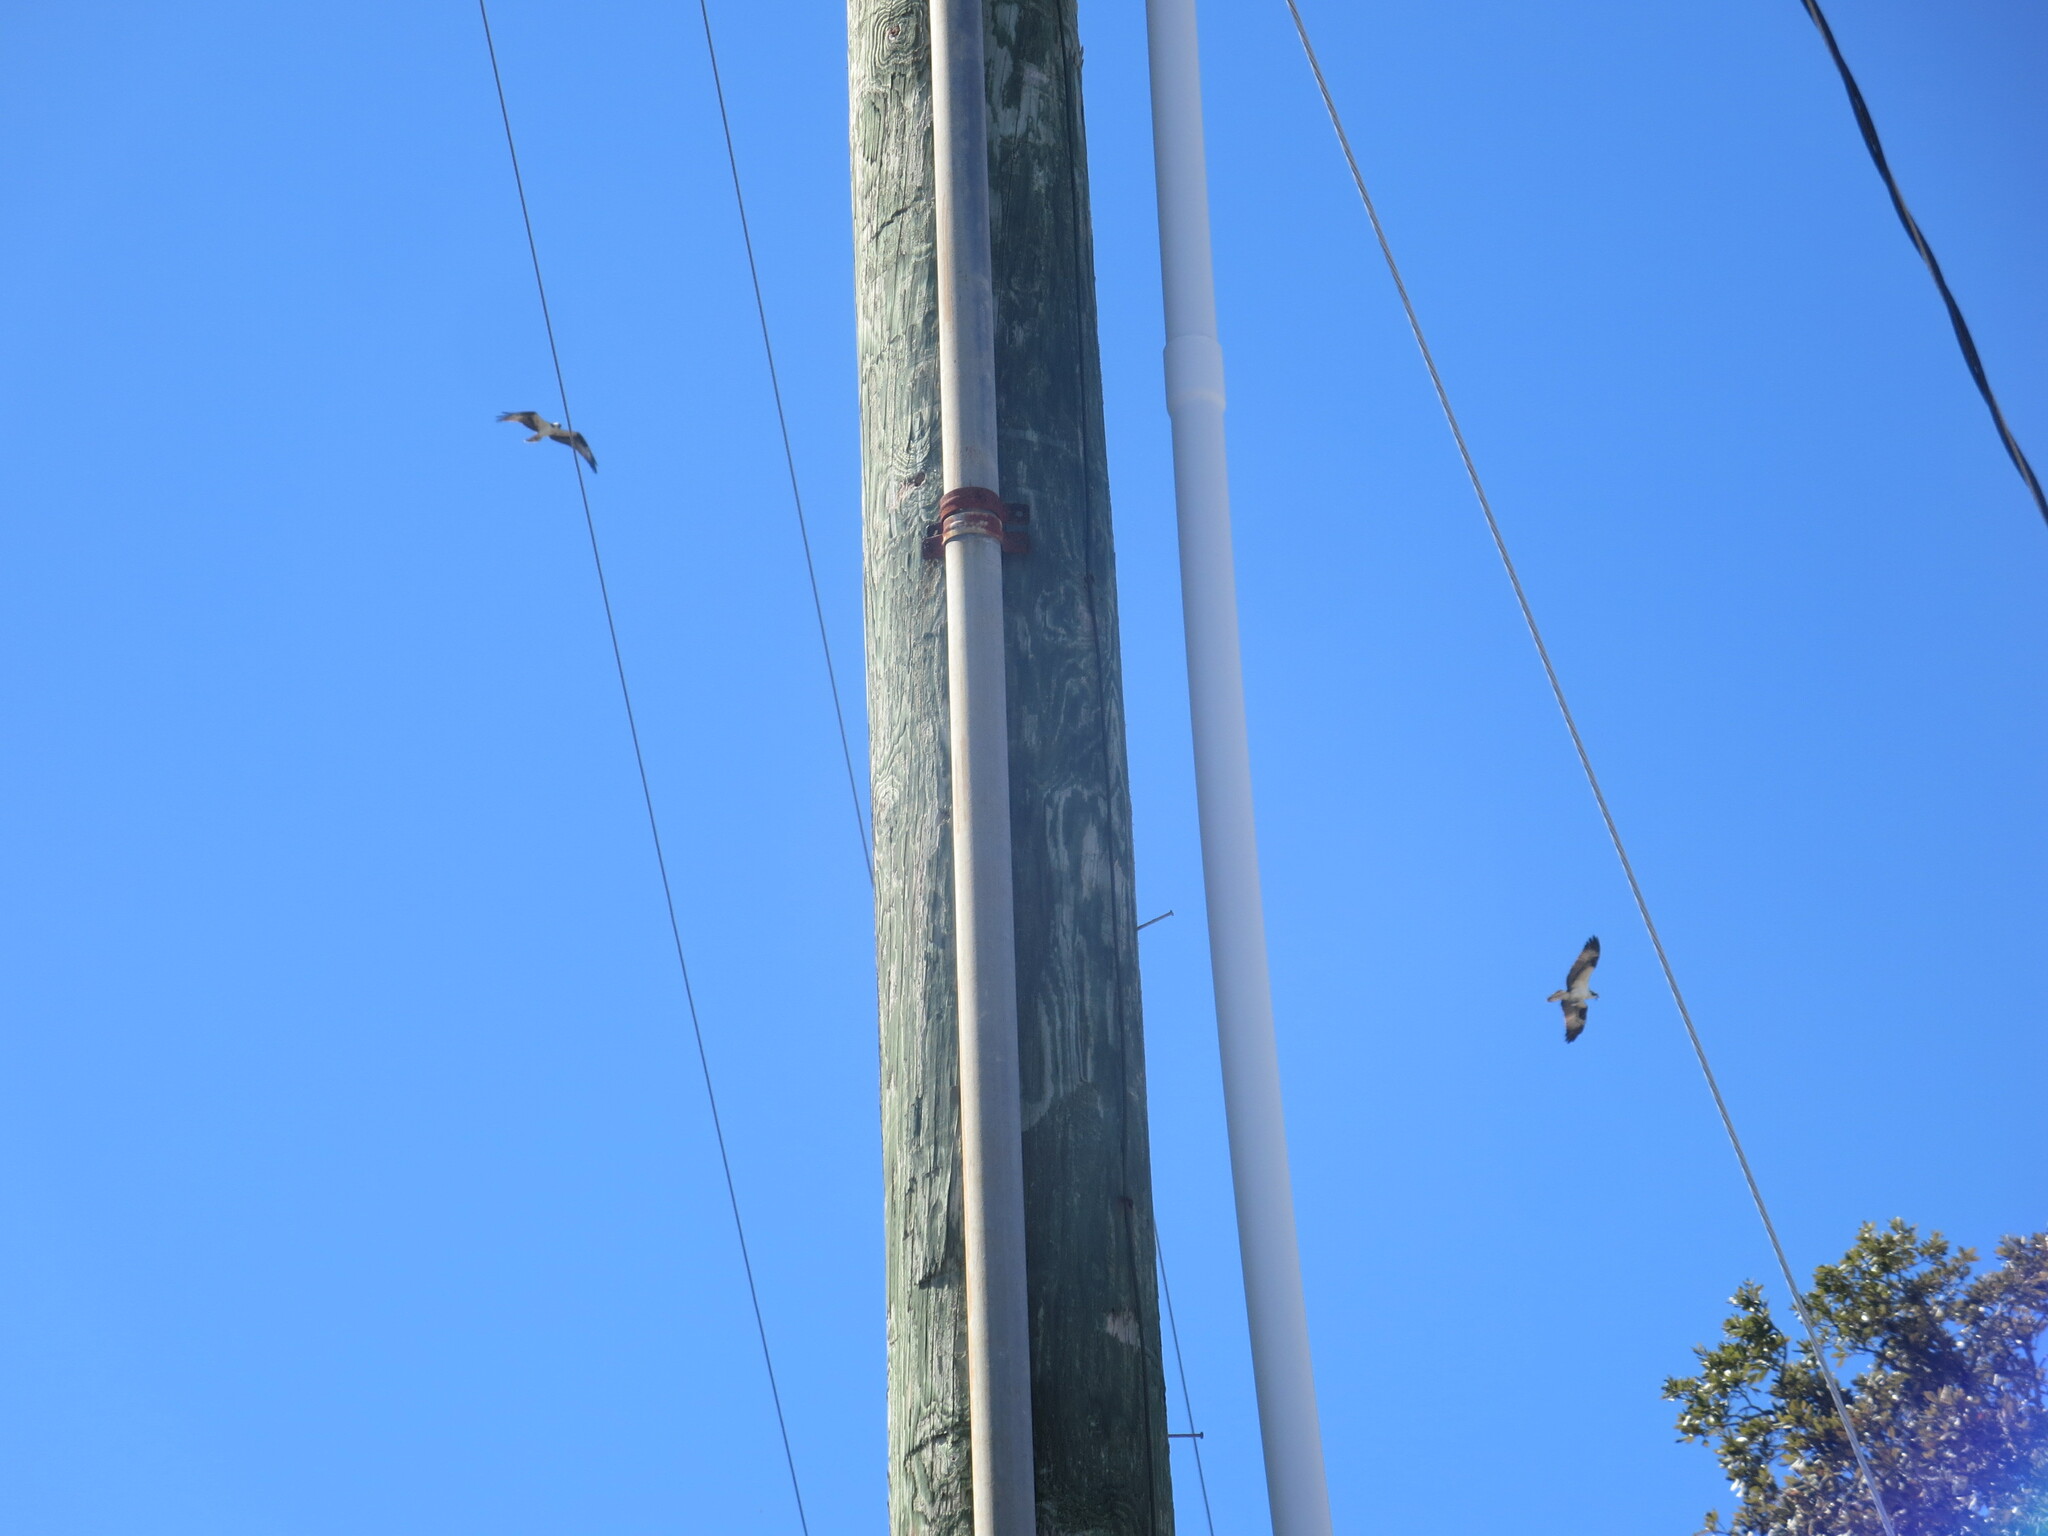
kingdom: Animalia
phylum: Chordata
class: Aves
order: Accipitriformes
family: Pandionidae
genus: Pandion
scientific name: Pandion haliaetus
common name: Osprey
